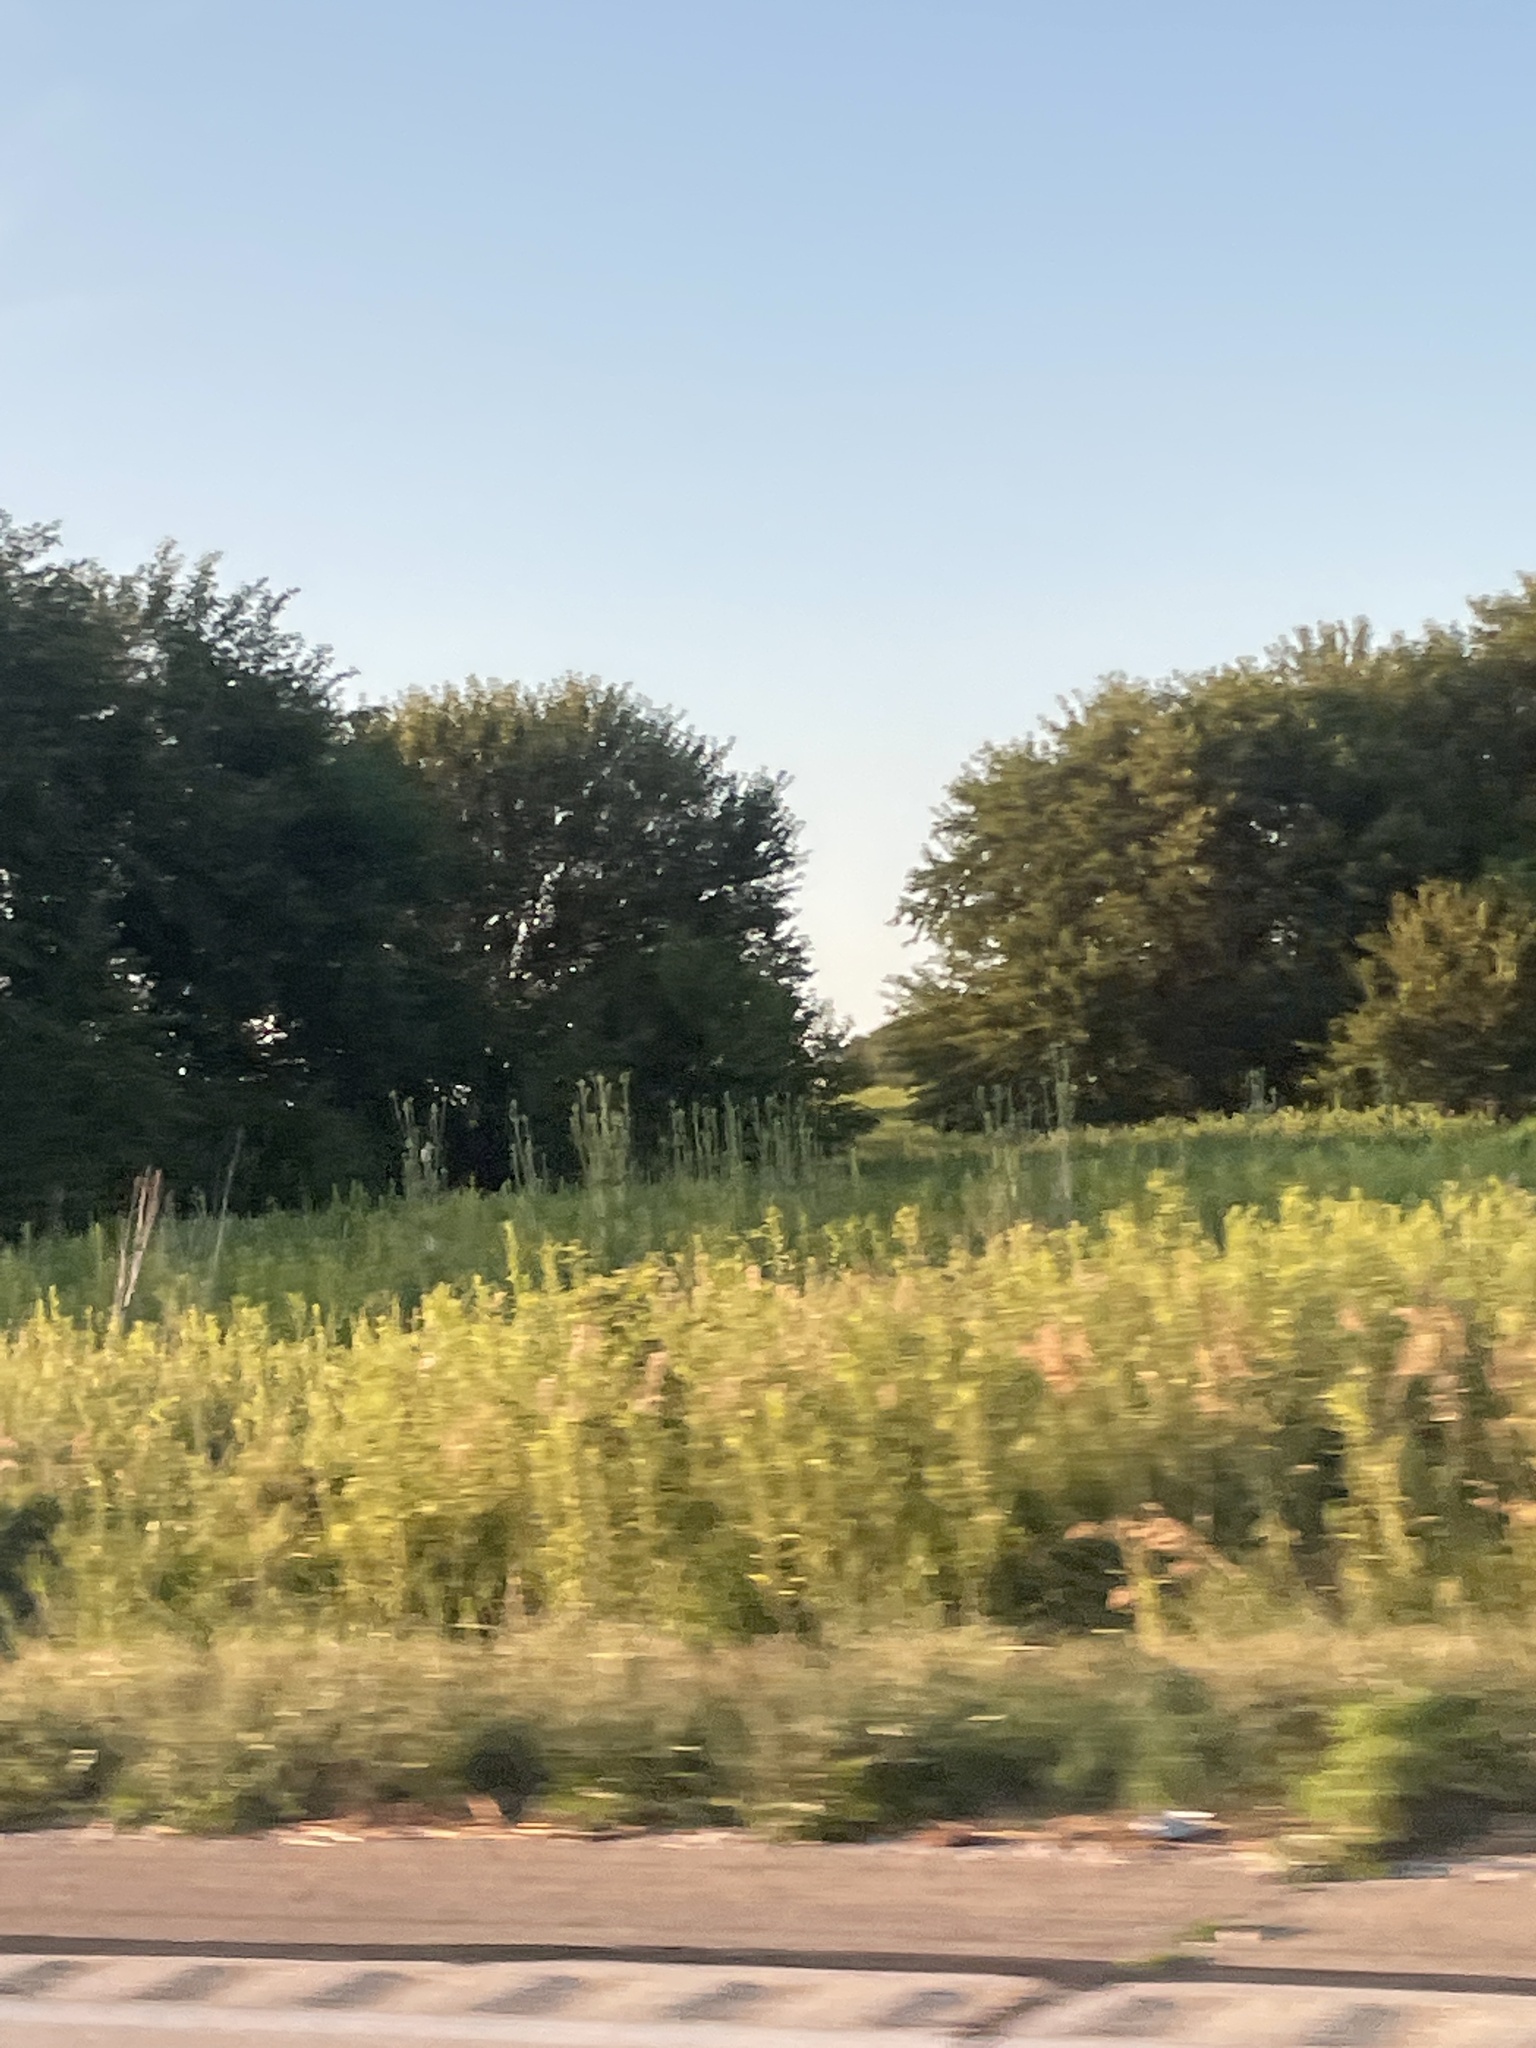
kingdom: Plantae
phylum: Tracheophyta
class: Magnoliopsida
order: Dipsacales
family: Caprifoliaceae
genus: Dipsacus
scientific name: Dipsacus laciniatus
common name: Cut-leaved teasel
